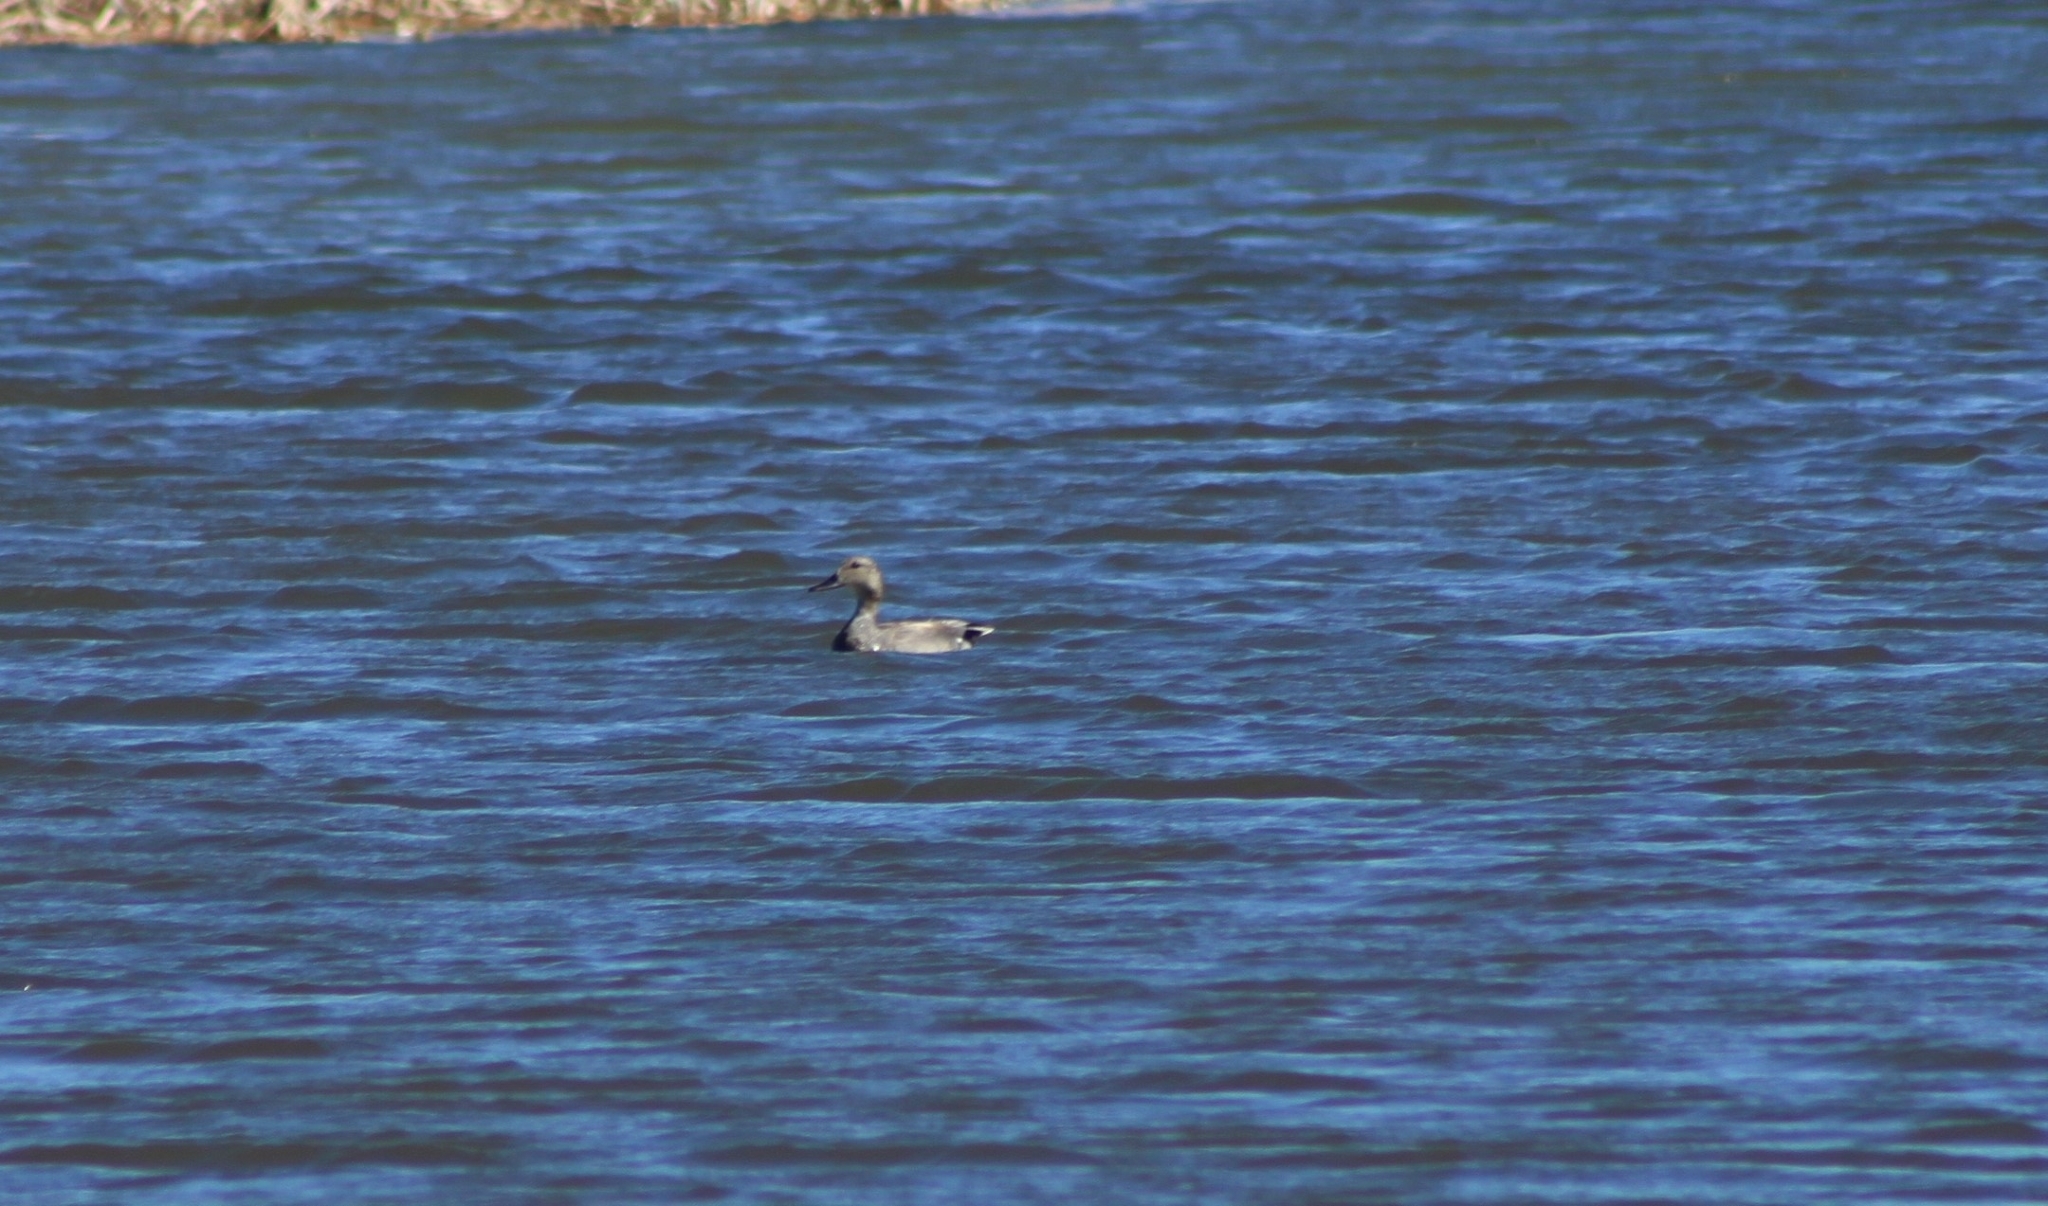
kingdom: Animalia
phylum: Chordata
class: Aves
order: Anseriformes
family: Anatidae
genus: Mareca
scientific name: Mareca strepera
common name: Gadwall
